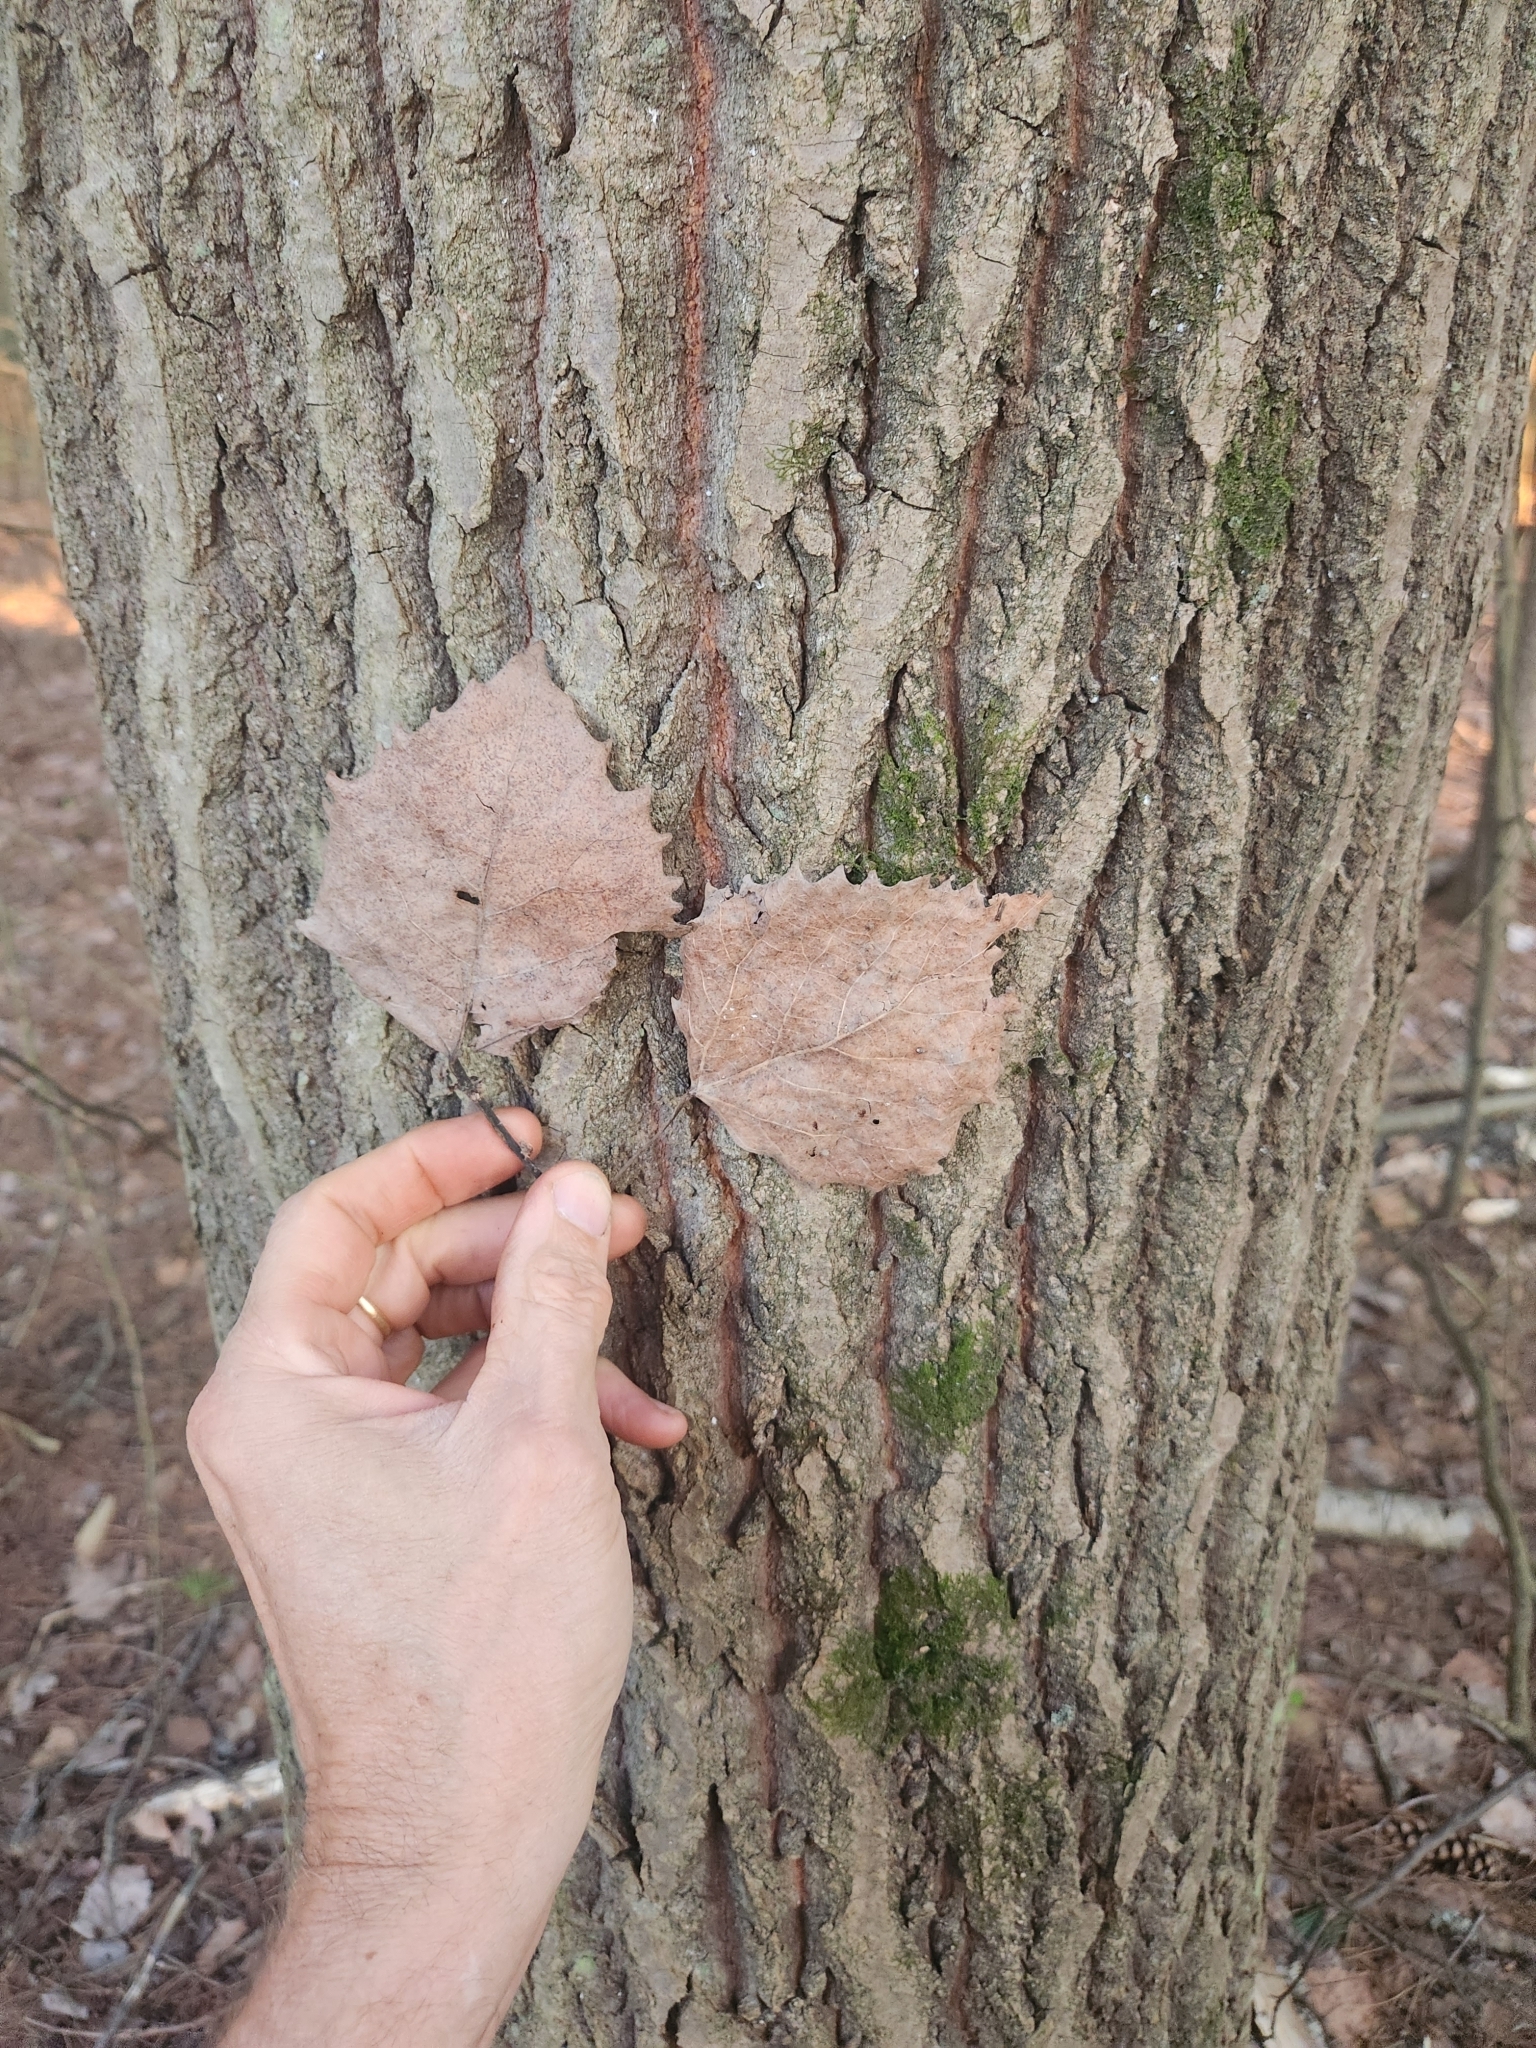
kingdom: Plantae
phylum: Tracheophyta
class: Magnoliopsida
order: Malpighiales
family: Salicaceae
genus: Populus
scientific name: Populus grandidentata
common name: Bigtooth aspen
